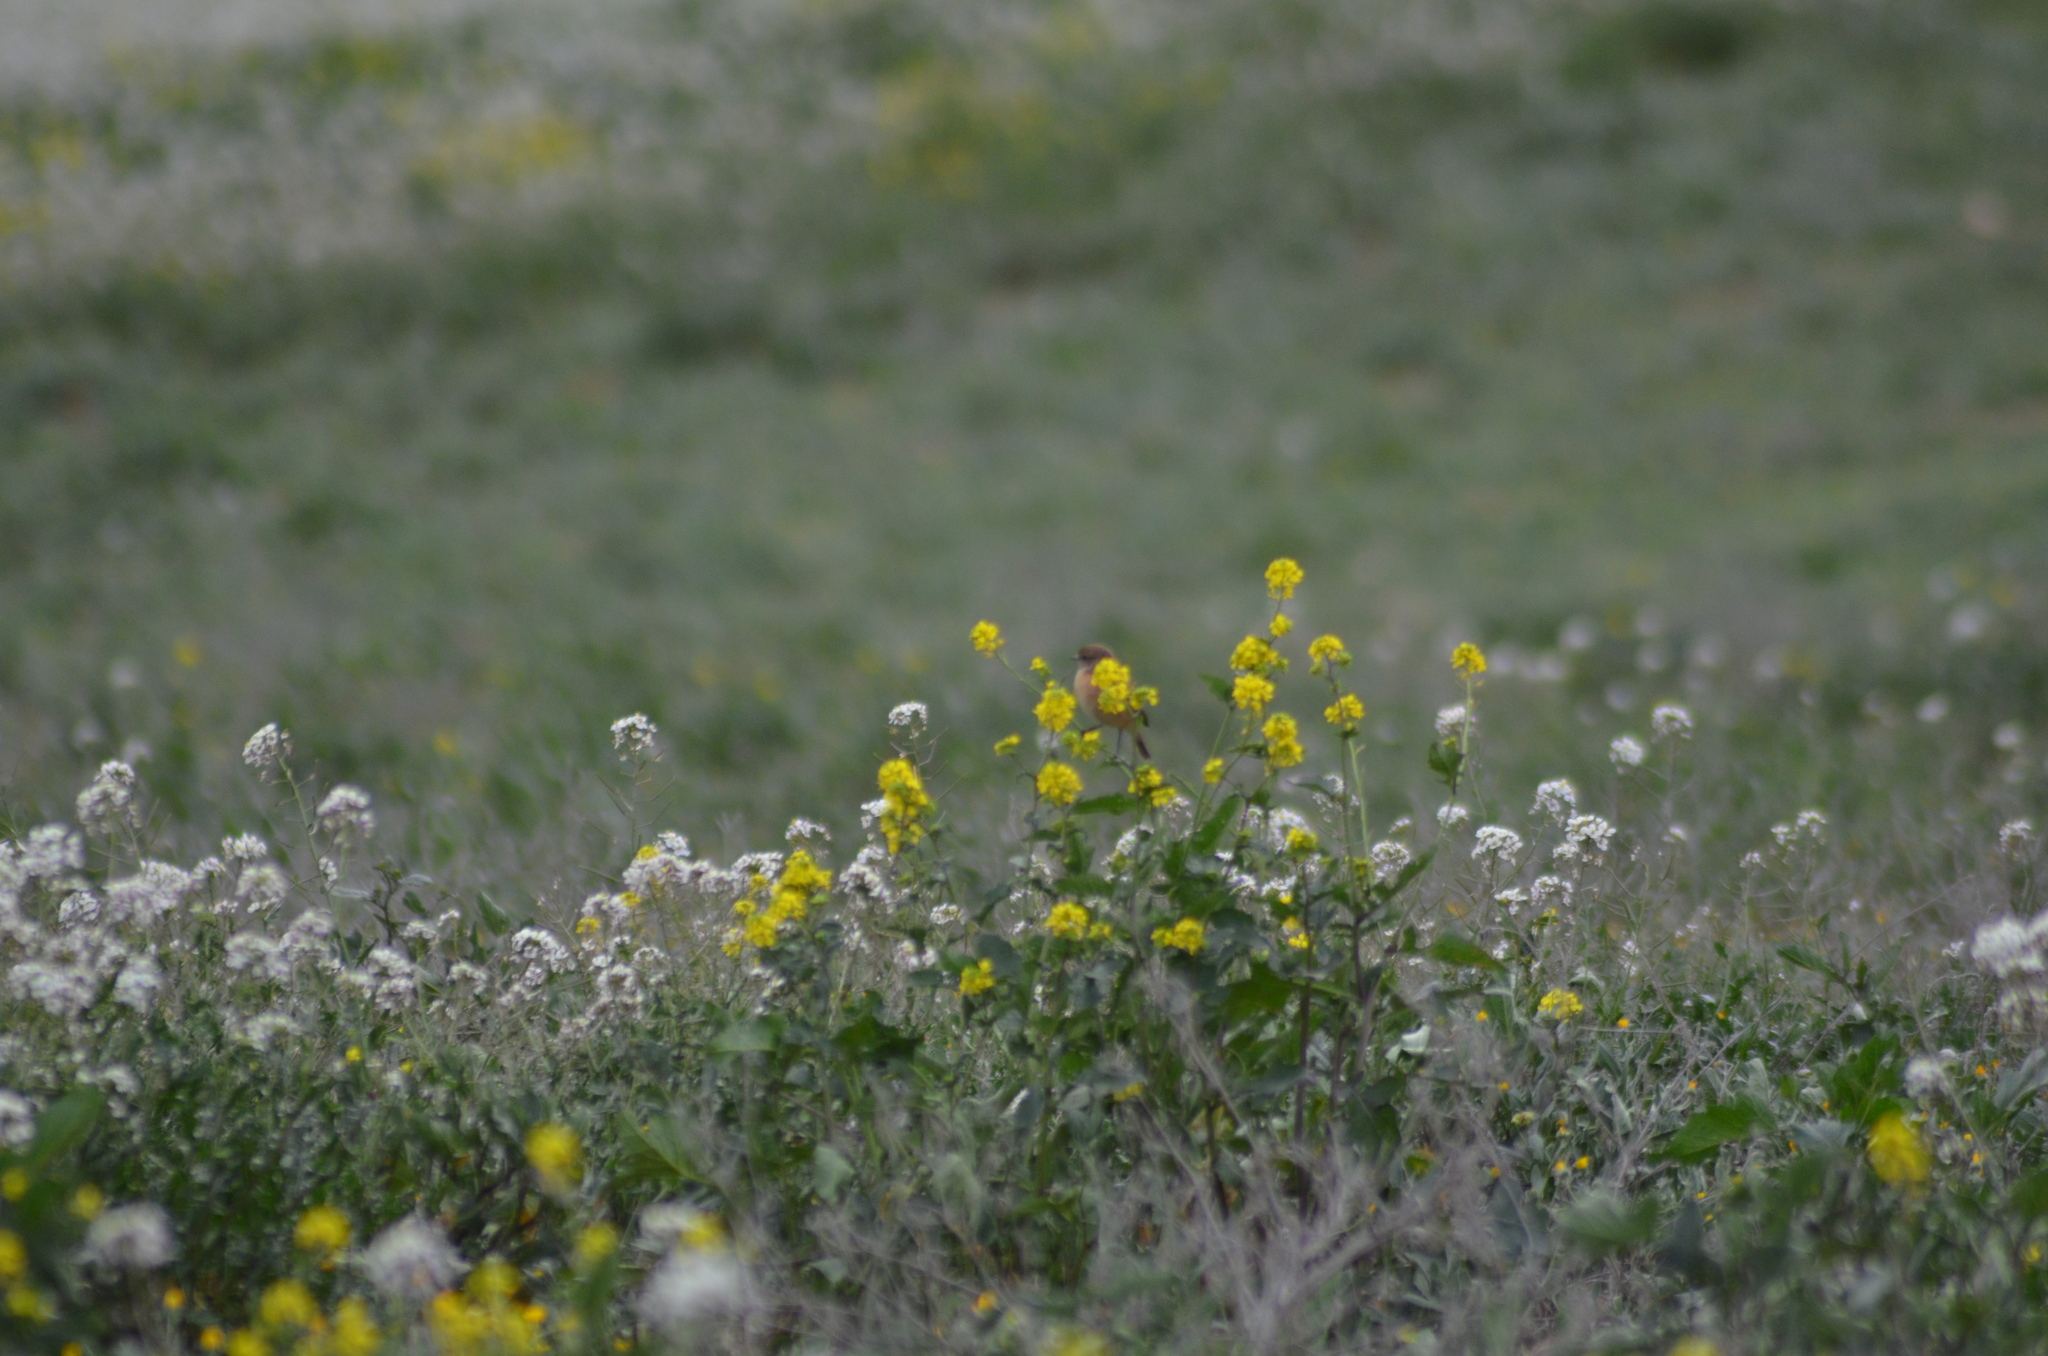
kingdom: Animalia
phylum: Chordata
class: Aves
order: Passeriformes
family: Muscicapidae
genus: Saxicola
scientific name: Saxicola rubicola
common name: European stonechat
